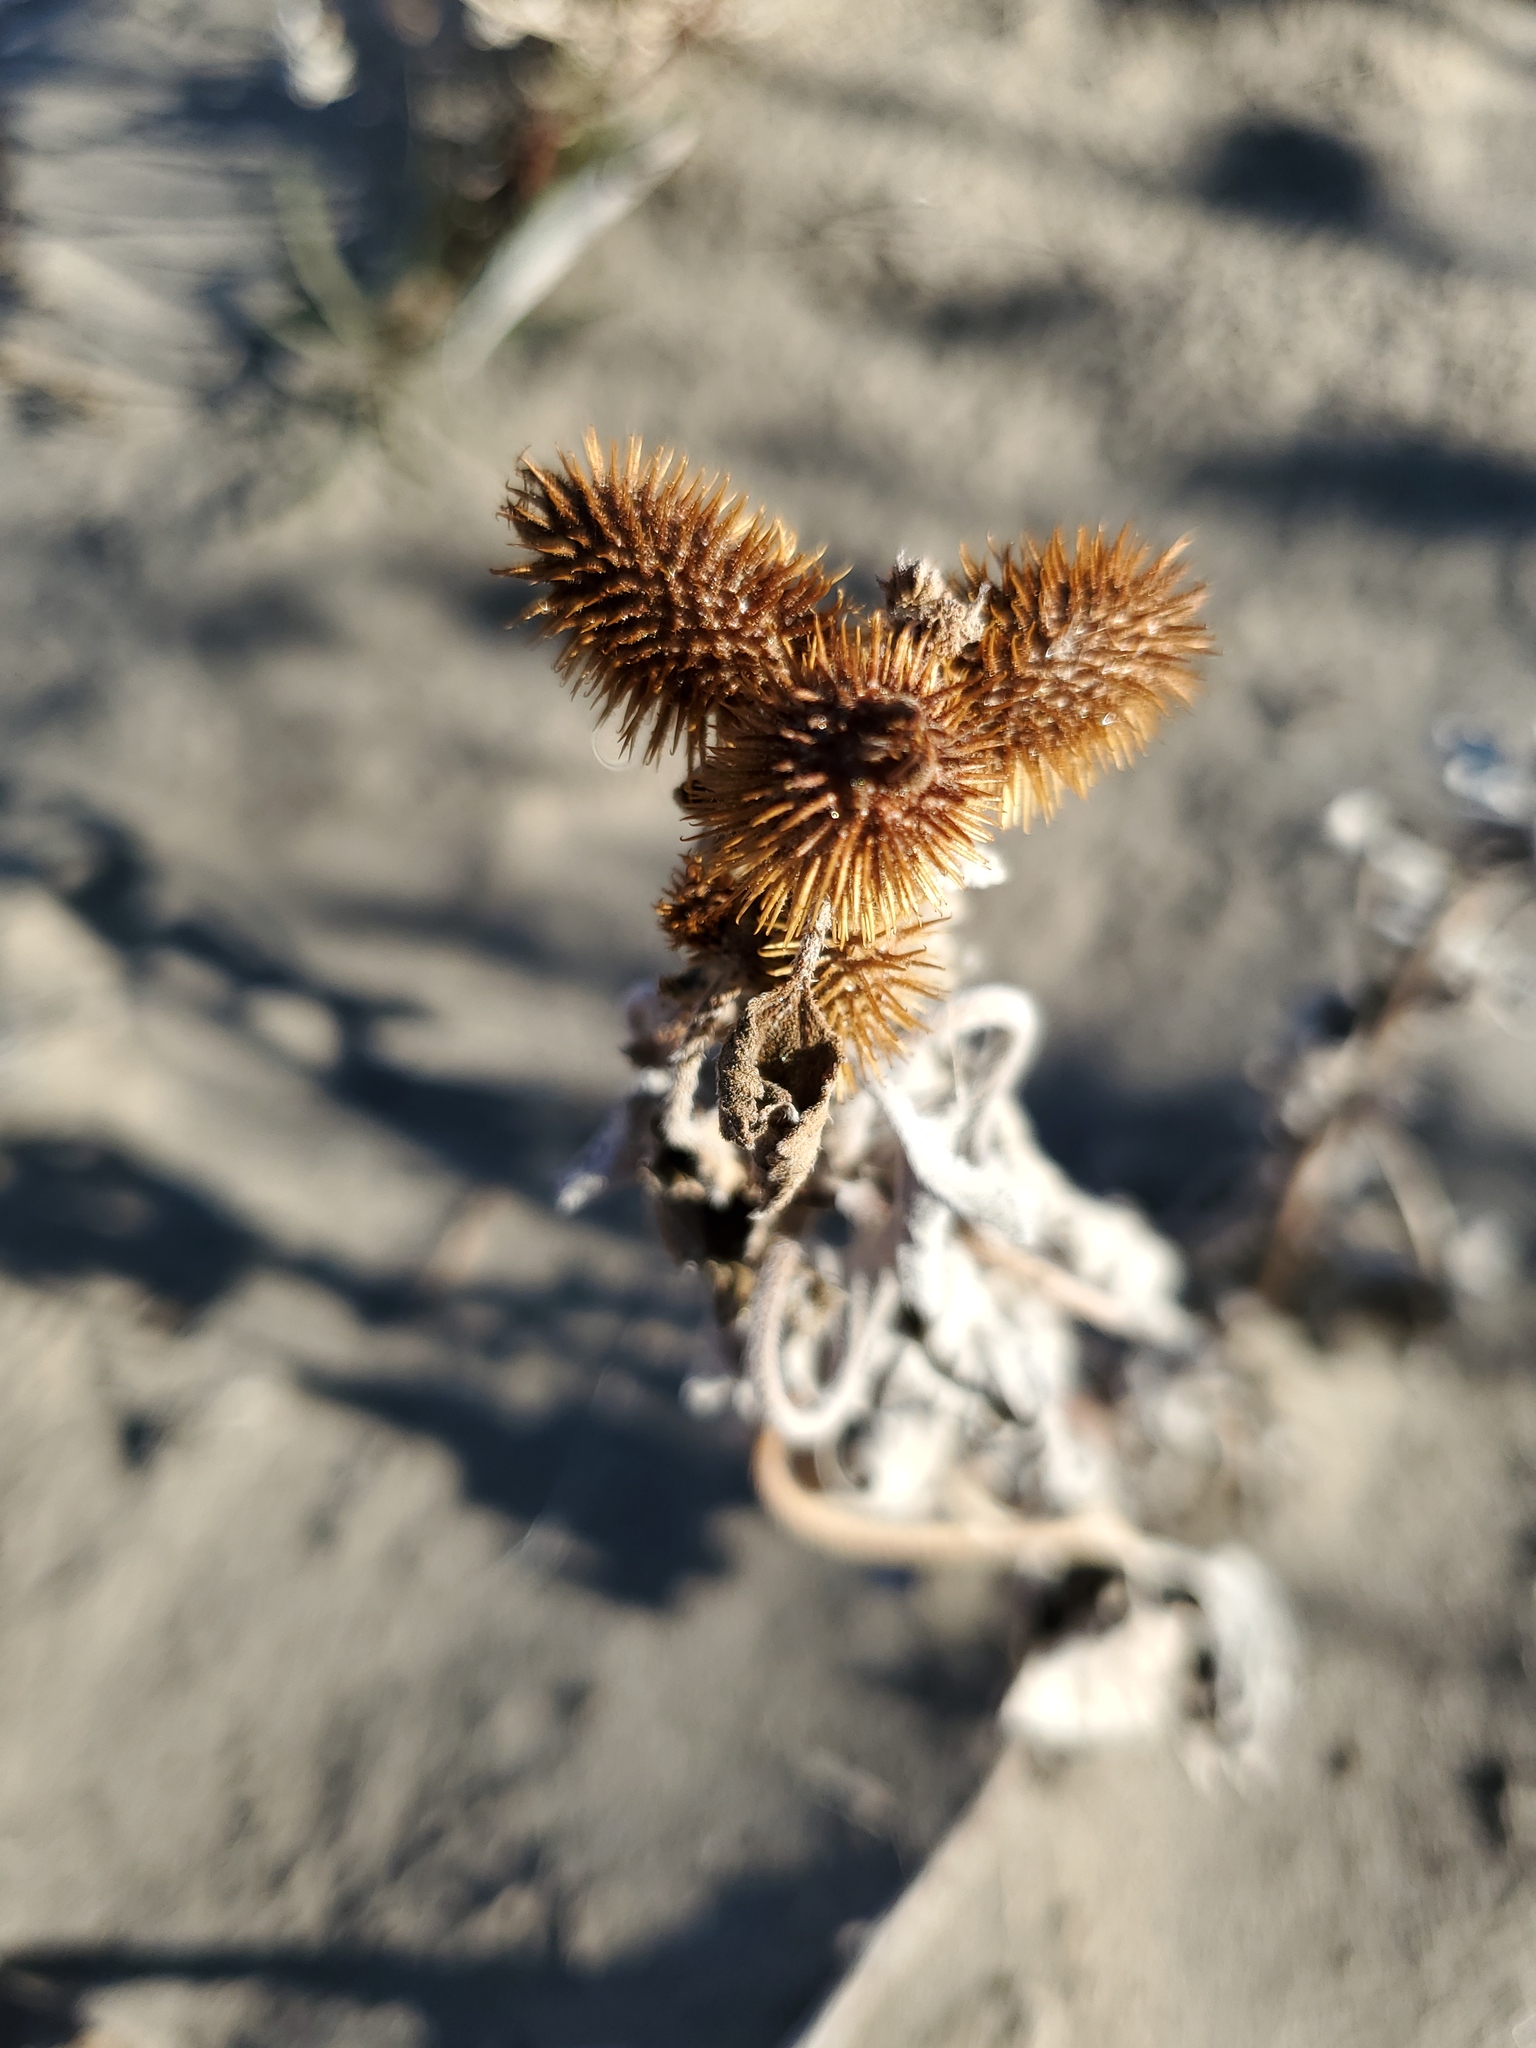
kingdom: Plantae
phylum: Tracheophyta
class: Magnoliopsida
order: Asterales
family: Asteraceae
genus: Xanthium
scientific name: Xanthium strumarium
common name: Rough cocklebur
